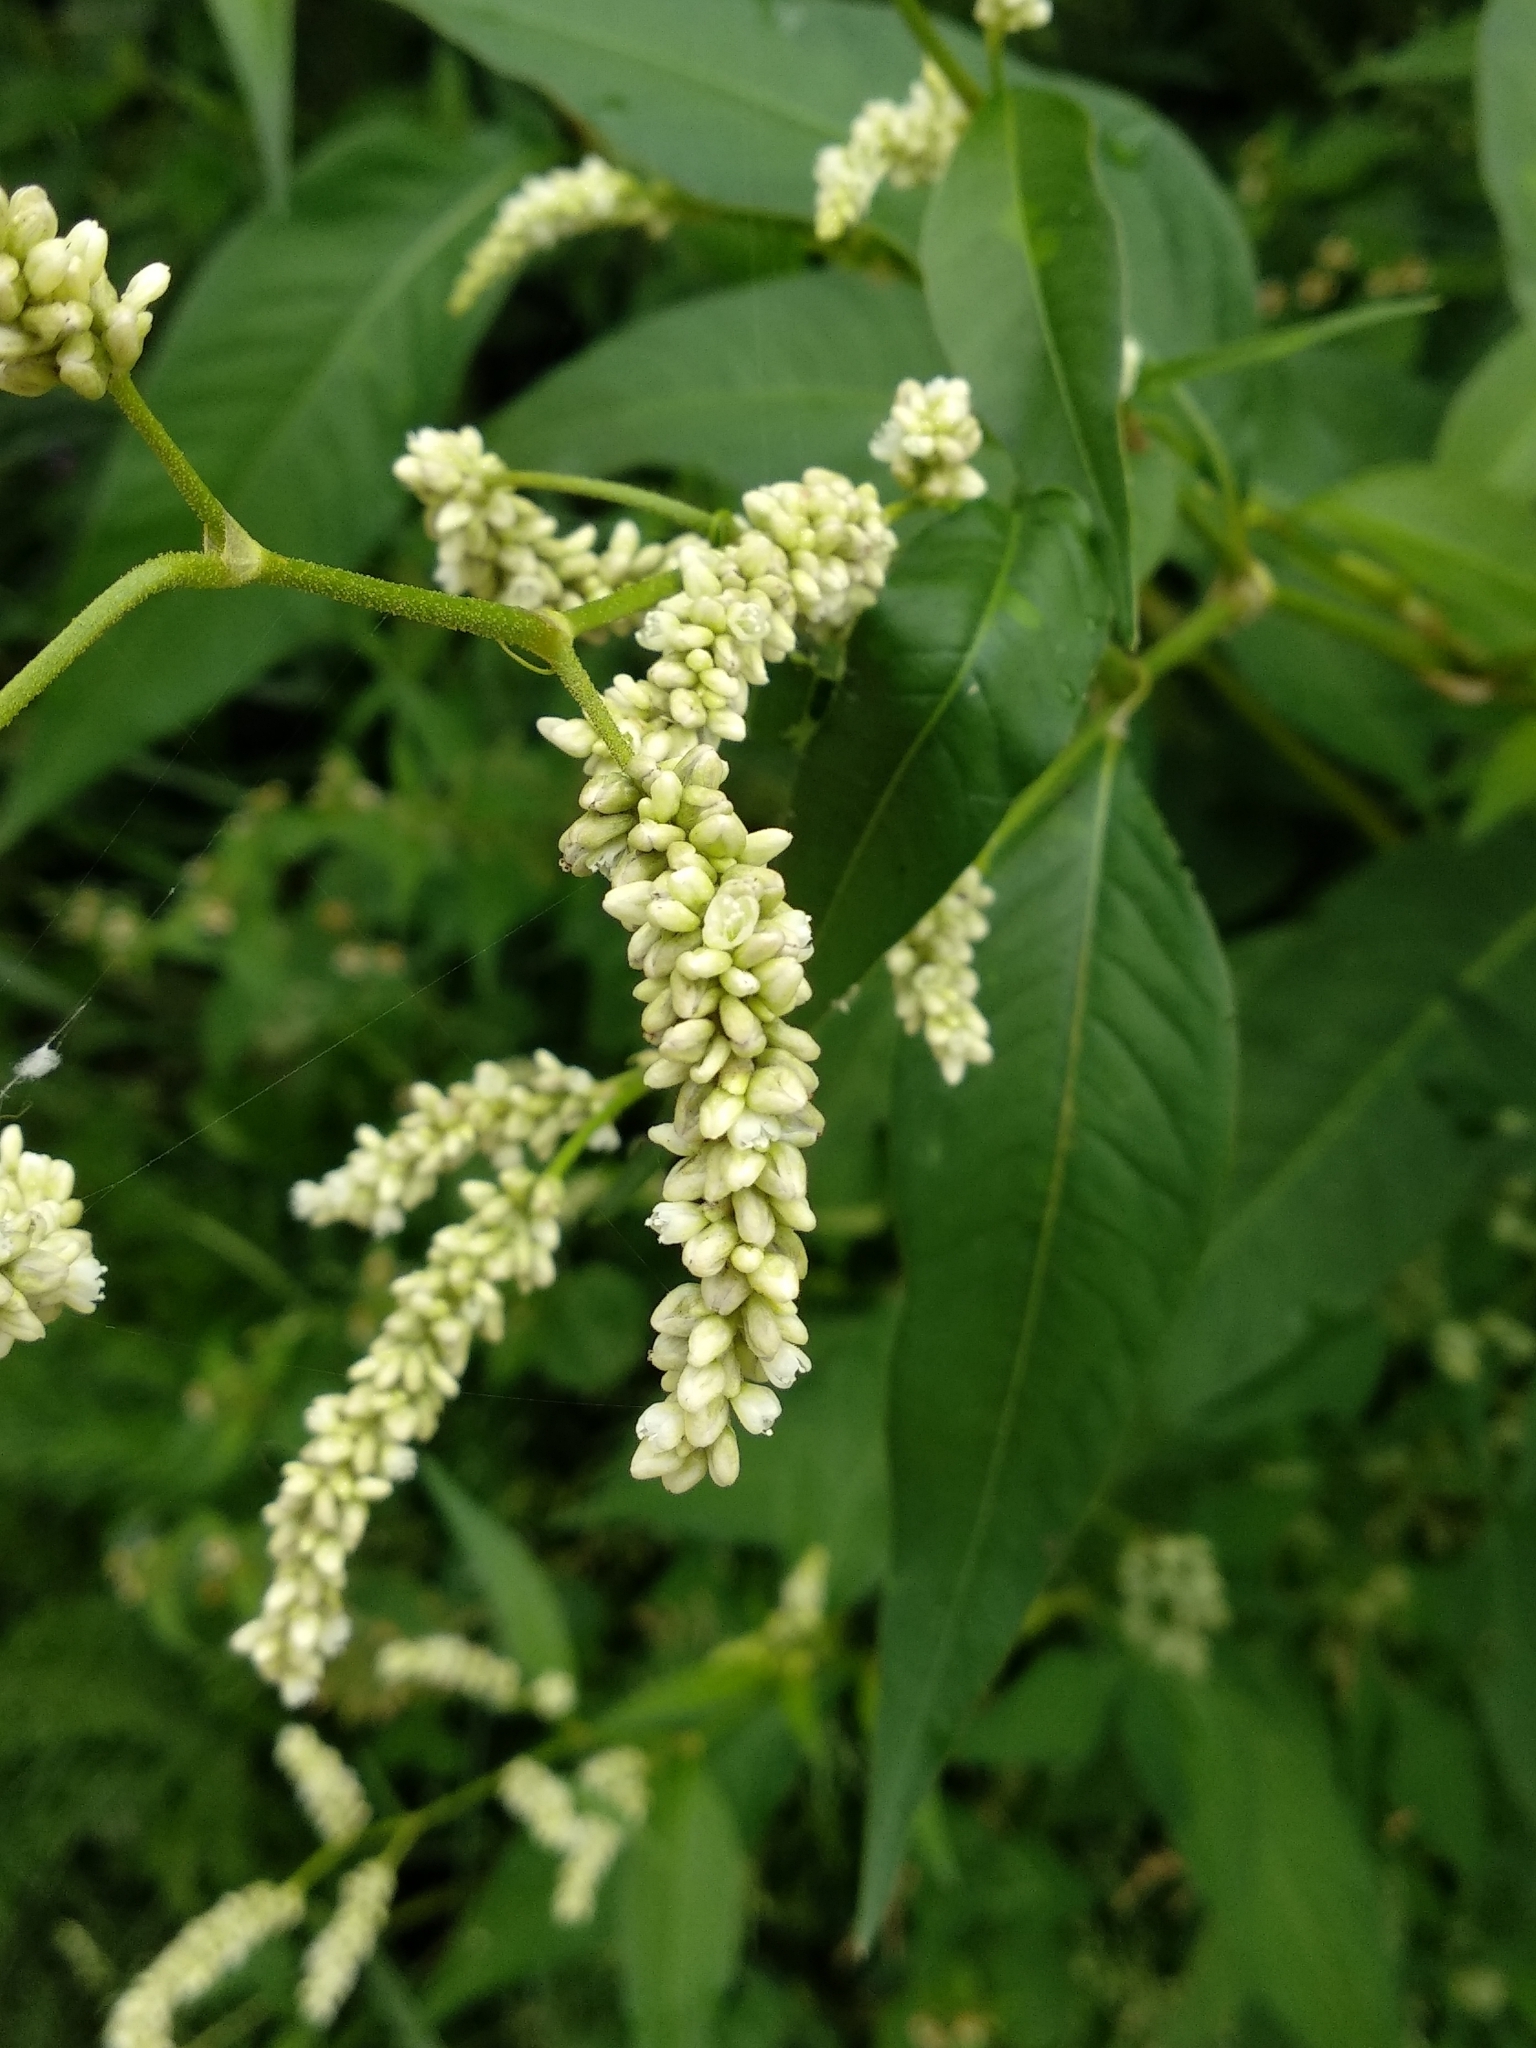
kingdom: Plantae
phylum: Tracheophyta
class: Magnoliopsida
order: Caryophyllales
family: Polygonaceae
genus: Persicaria
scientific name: Persicaria lapathifolia
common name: Curlytop knotweed
